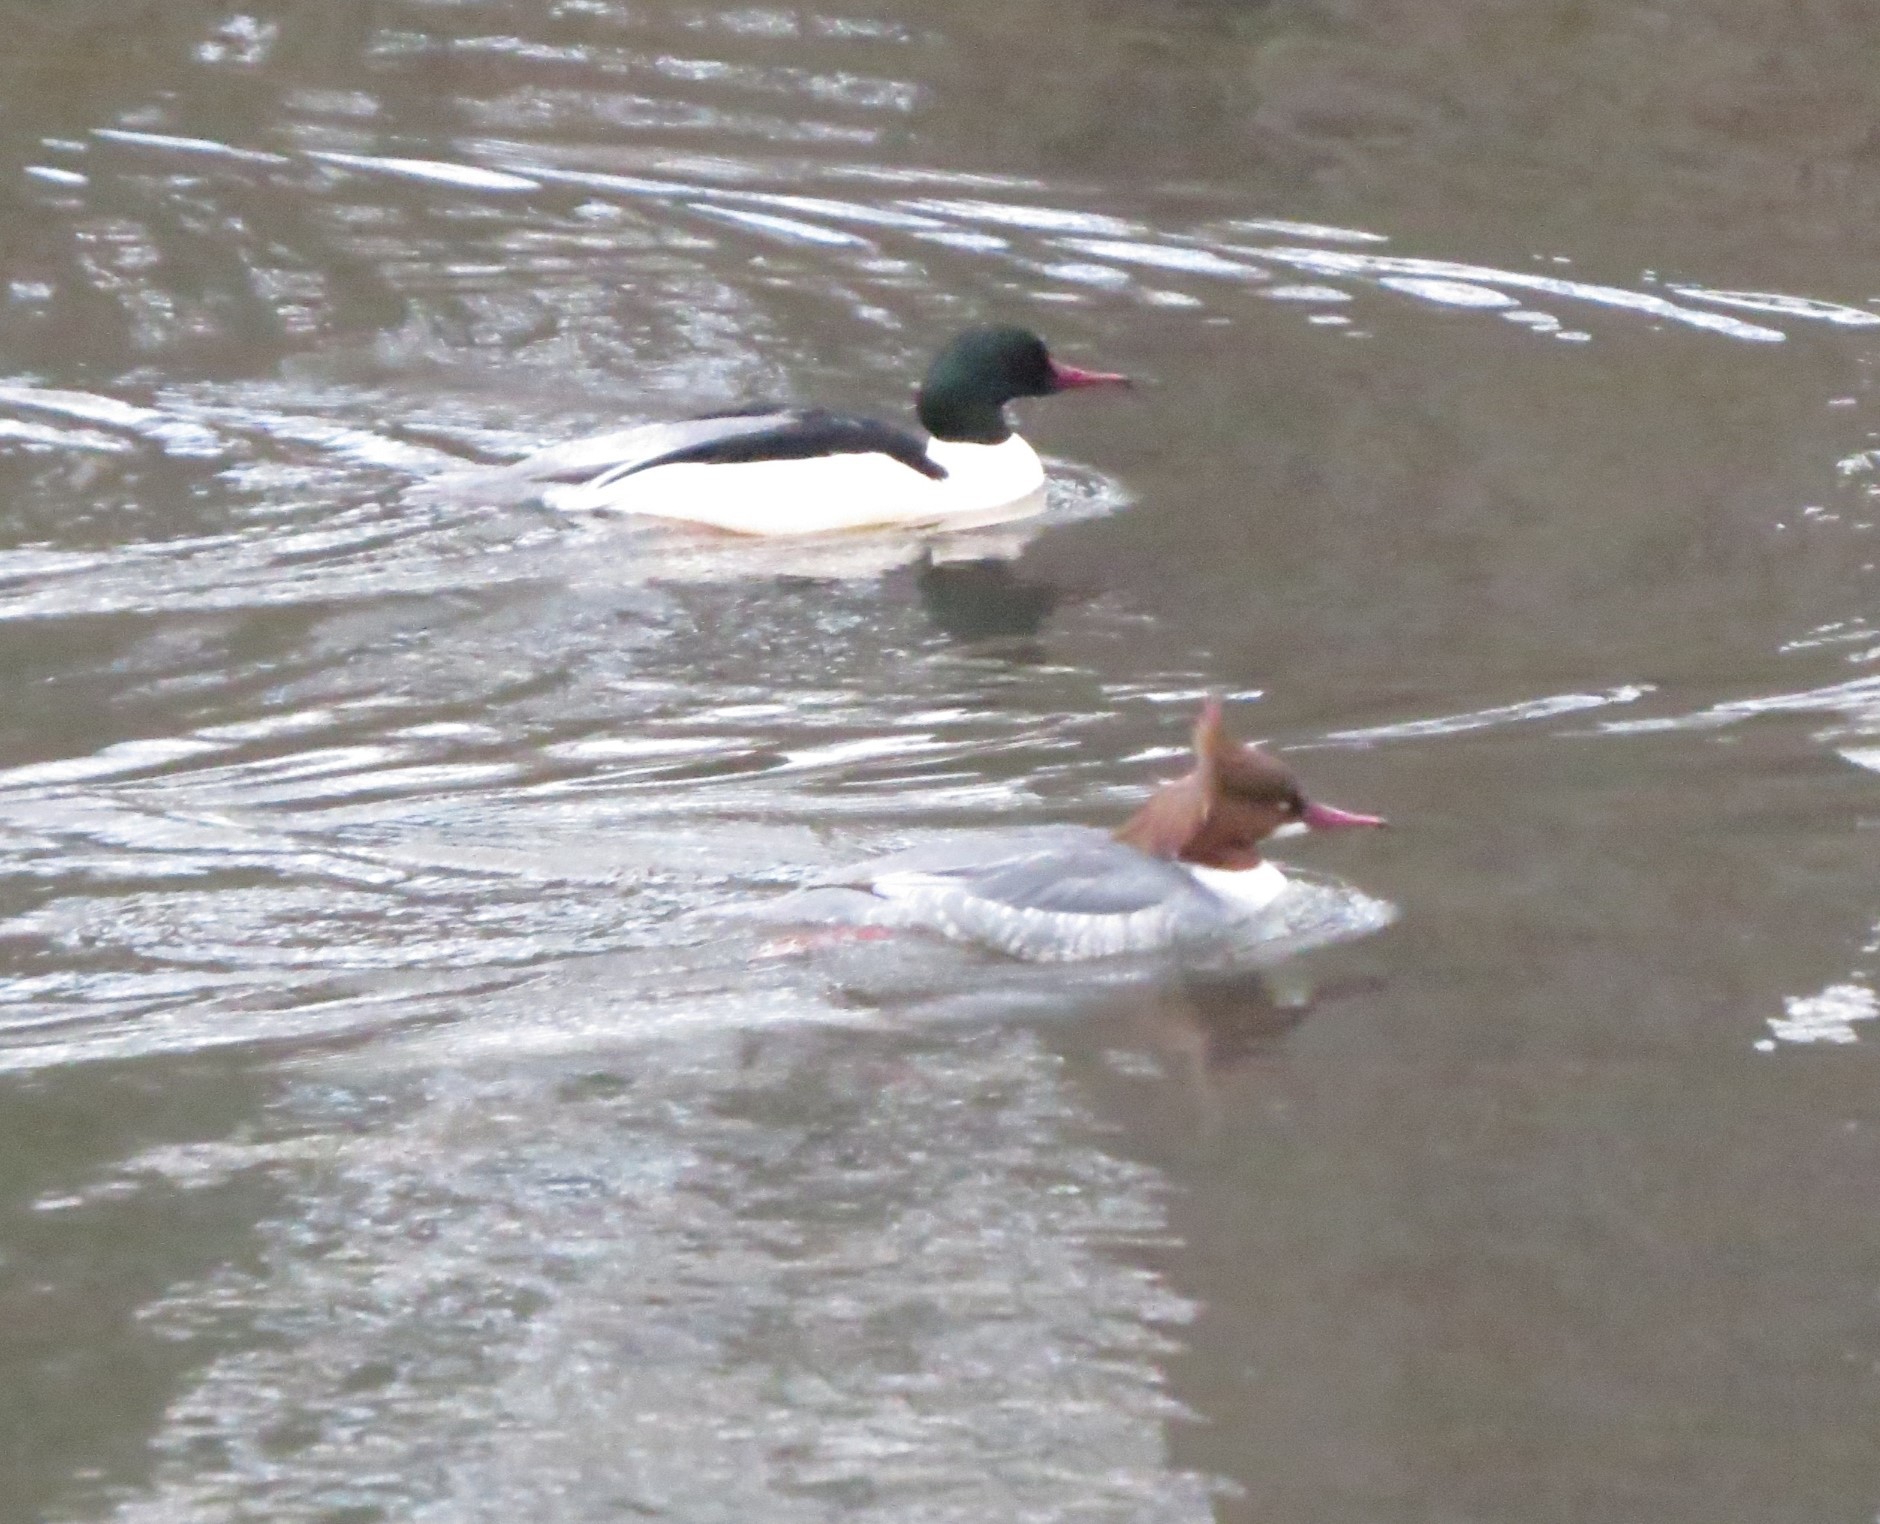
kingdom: Animalia
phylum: Chordata
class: Aves
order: Anseriformes
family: Anatidae
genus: Mergus
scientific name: Mergus merganser
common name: Common merganser
